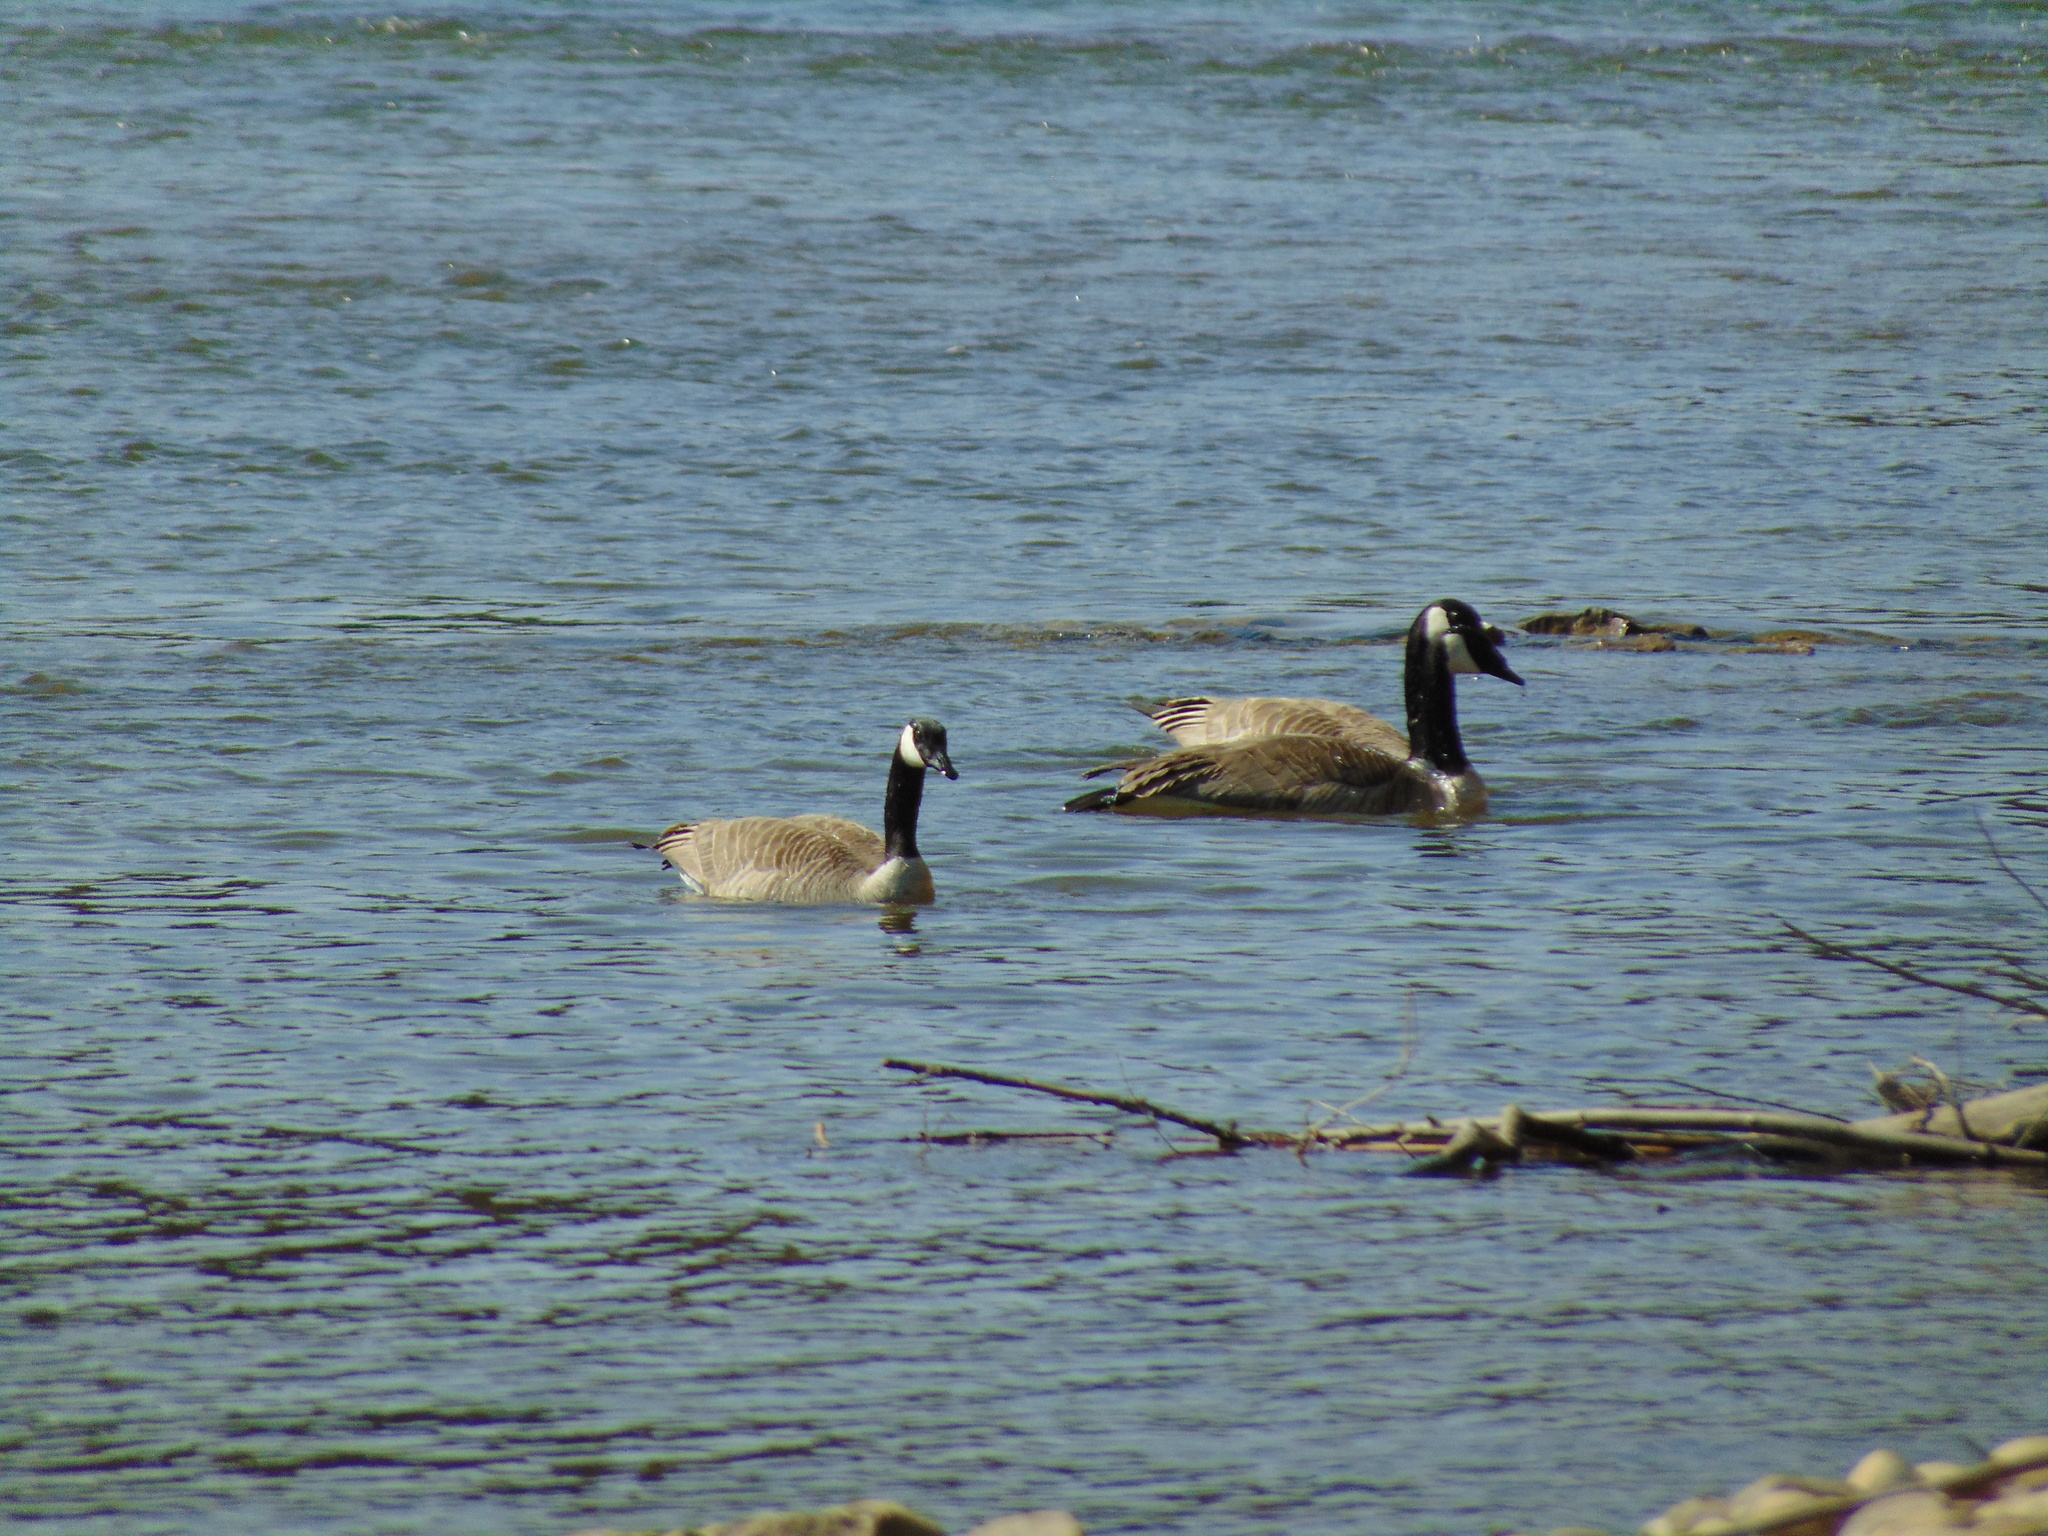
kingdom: Animalia
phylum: Chordata
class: Aves
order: Anseriformes
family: Anatidae
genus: Branta
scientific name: Branta canadensis
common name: Canada goose
